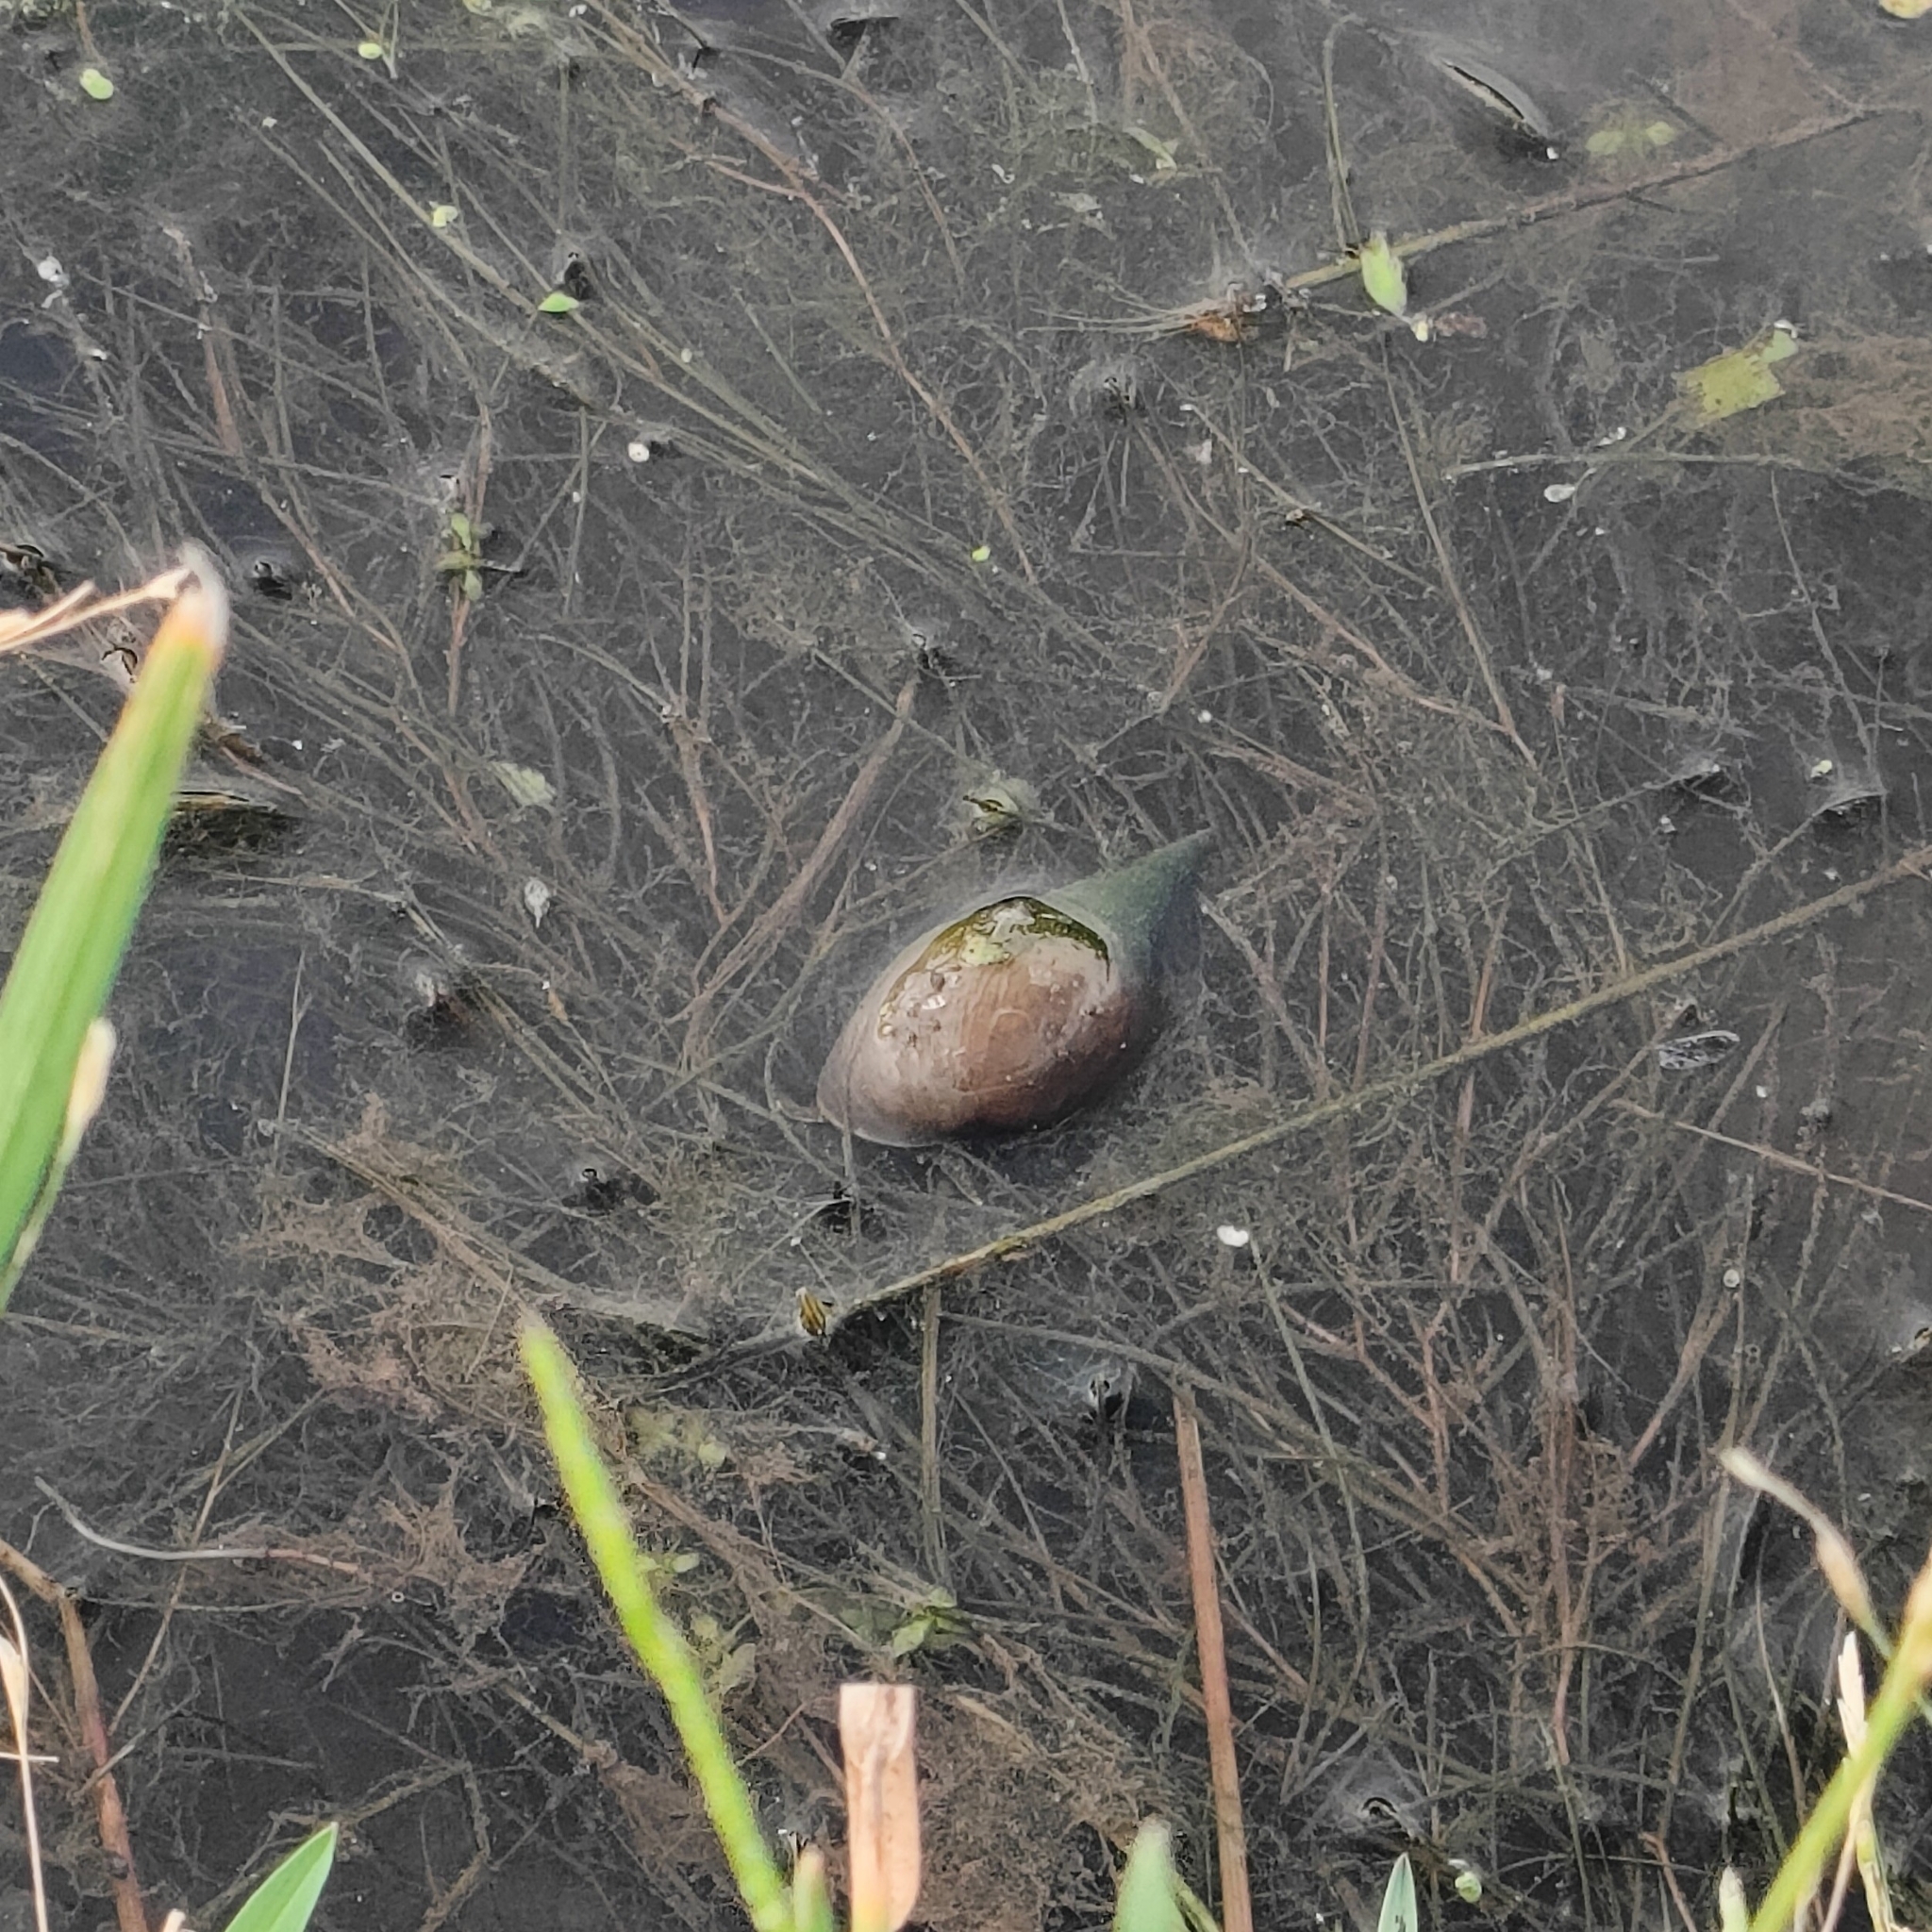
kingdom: Animalia
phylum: Mollusca
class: Gastropoda
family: Lymnaeidae
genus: Lymnaea
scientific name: Lymnaea stagnalis
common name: Great pond snail
